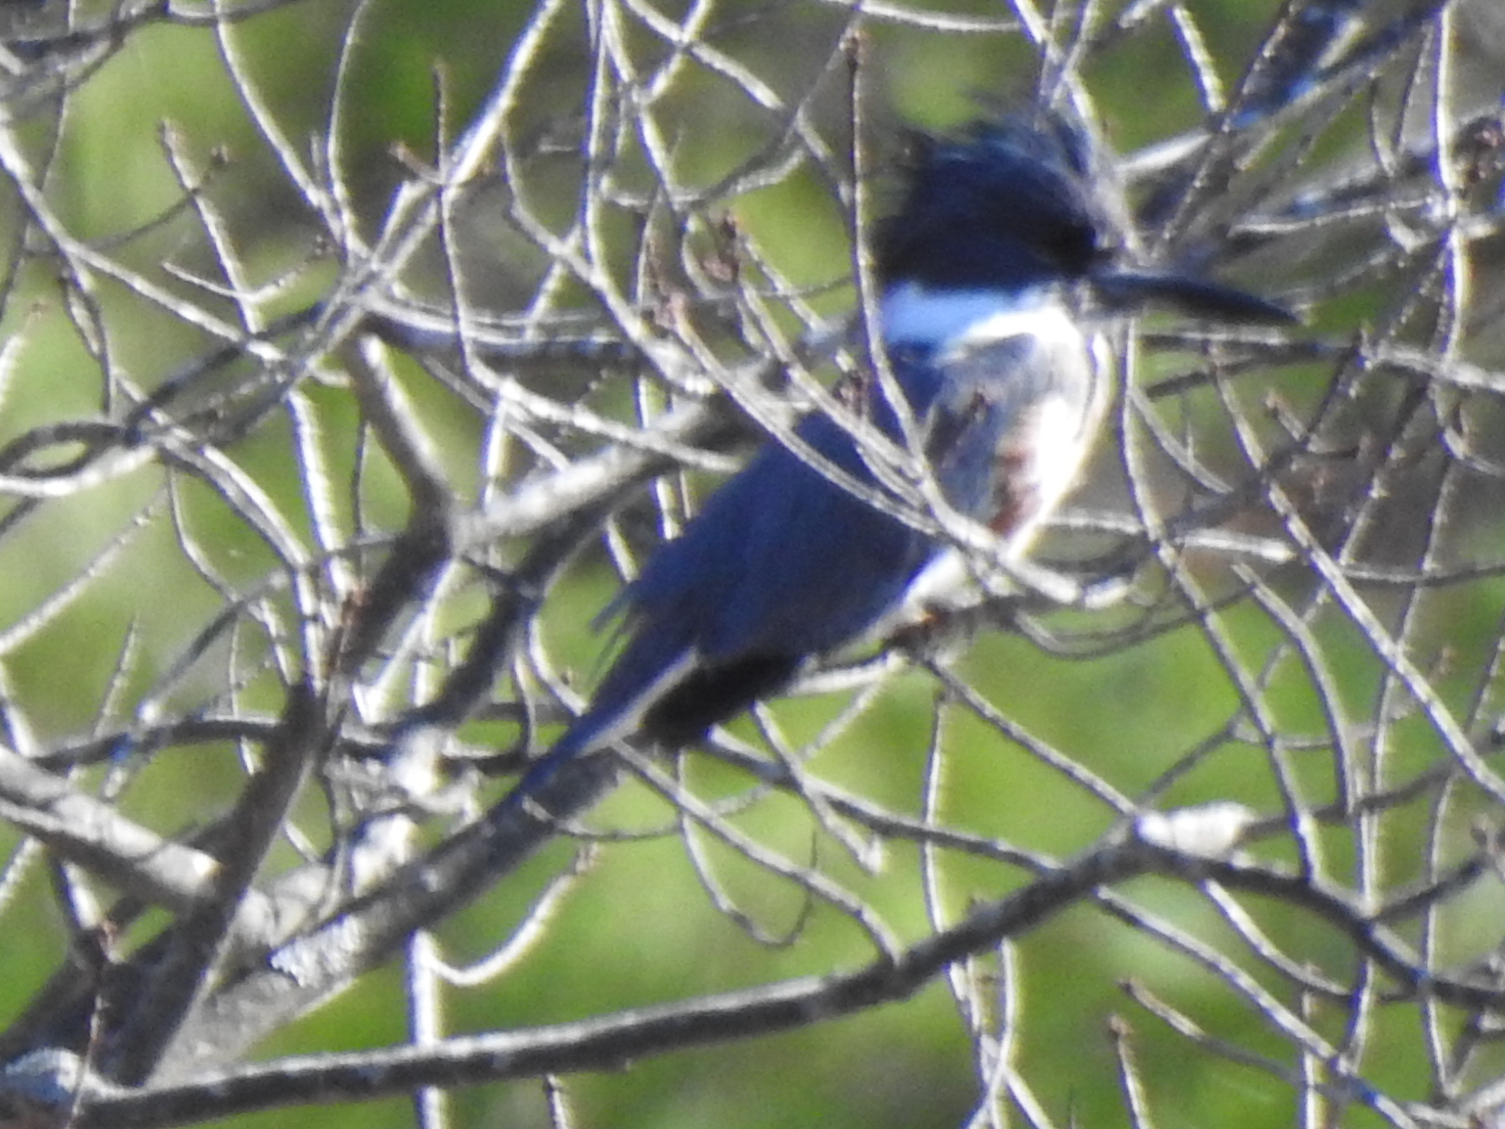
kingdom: Animalia
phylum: Chordata
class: Aves
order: Coraciiformes
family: Alcedinidae
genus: Megaceryle
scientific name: Megaceryle alcyon
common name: Belted kingfisher
